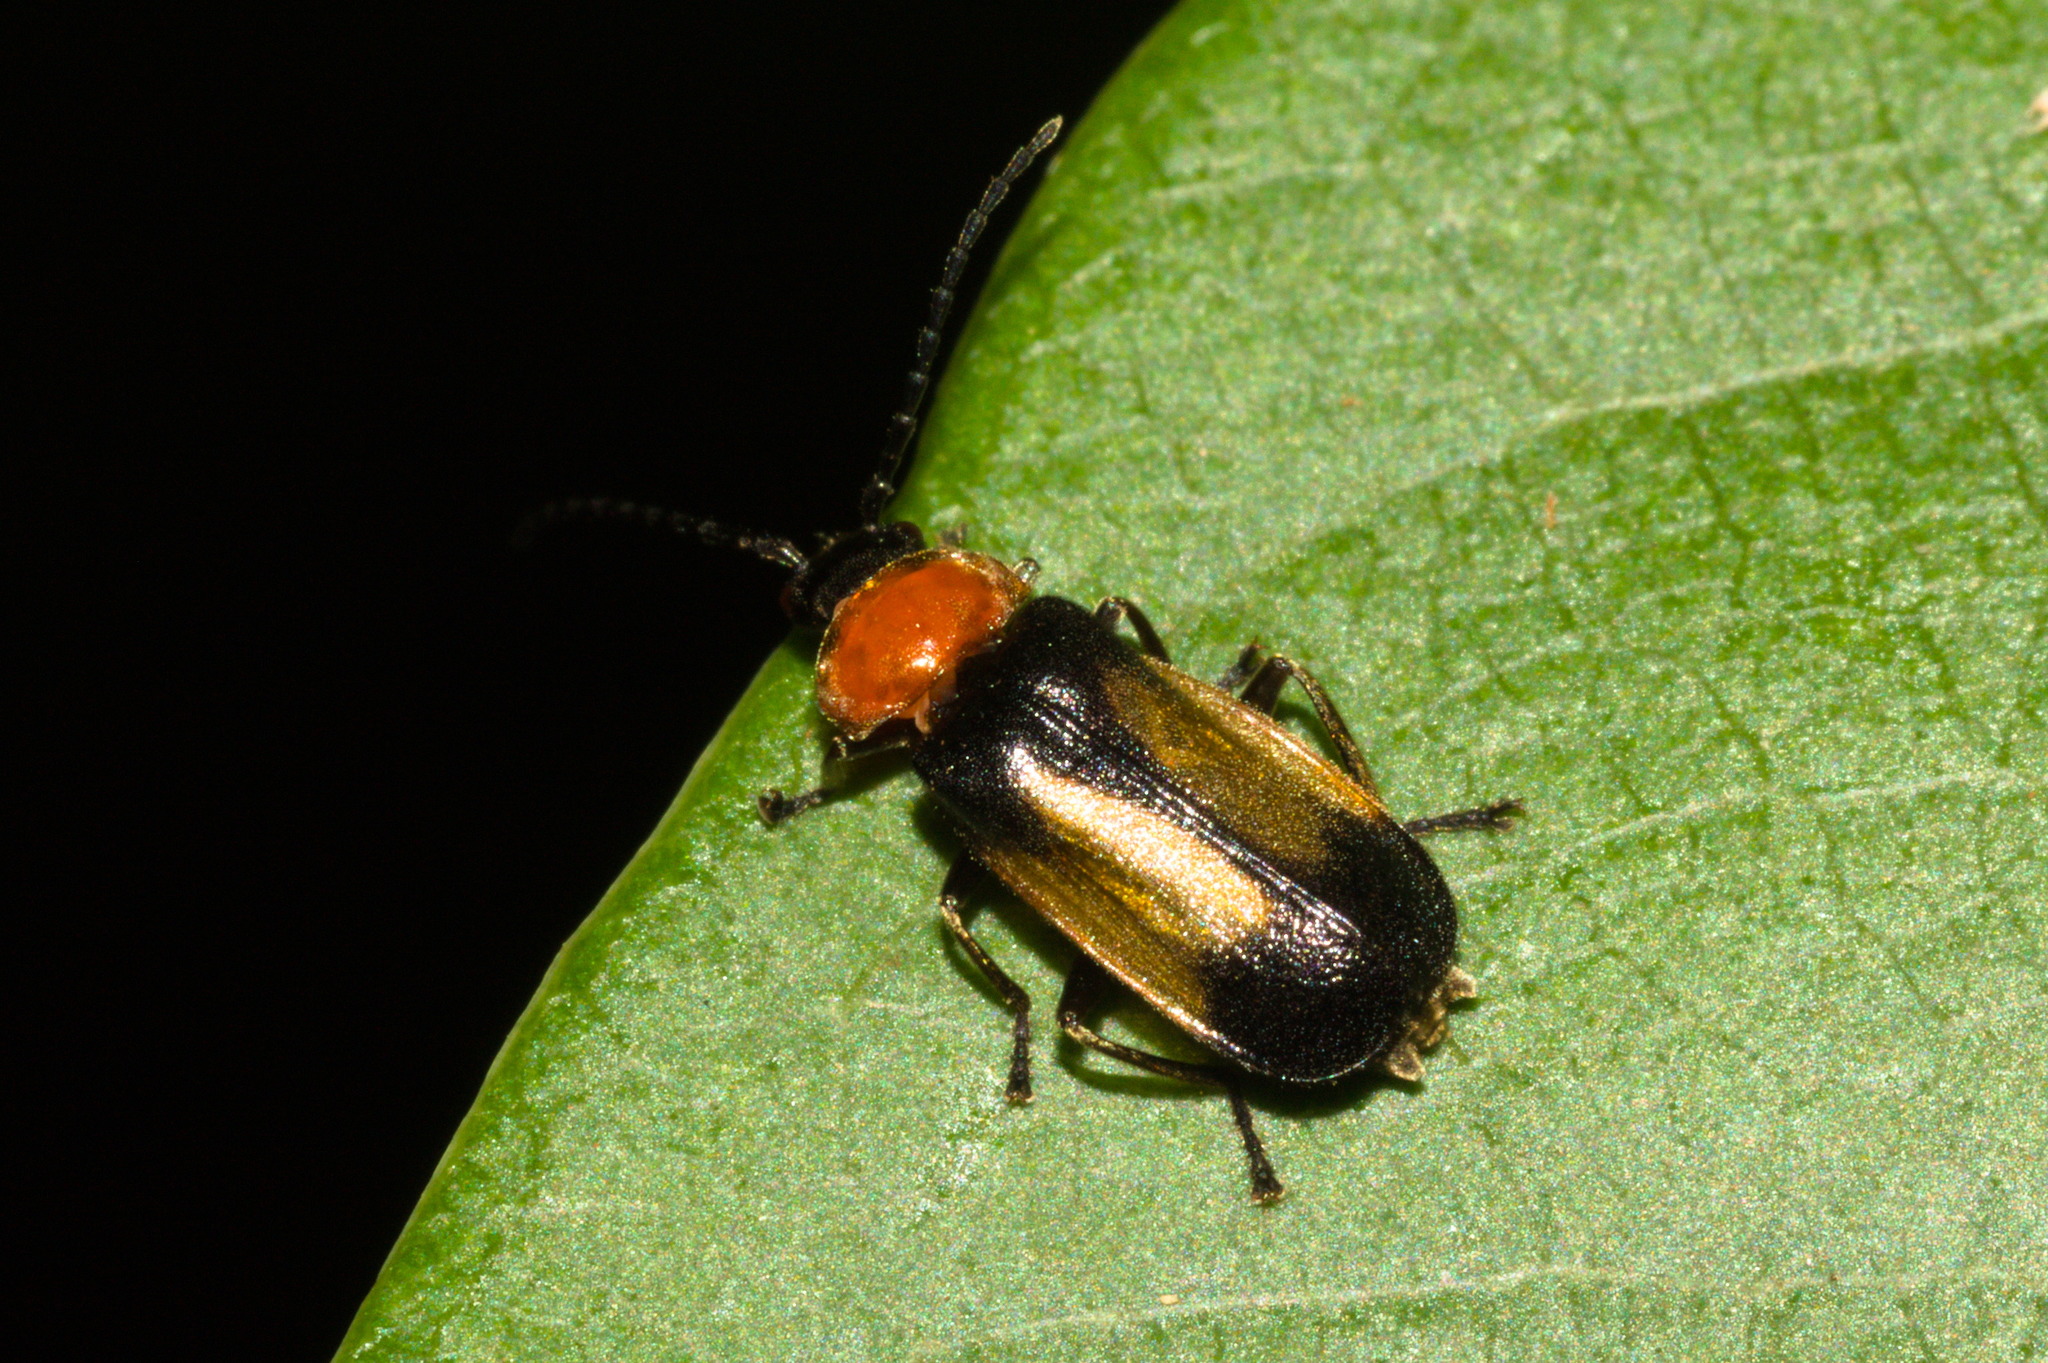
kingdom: Animalia
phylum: Arthropoda
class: Insecta
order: Coleoptera
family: Cantharidae
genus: Silis
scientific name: Silis
